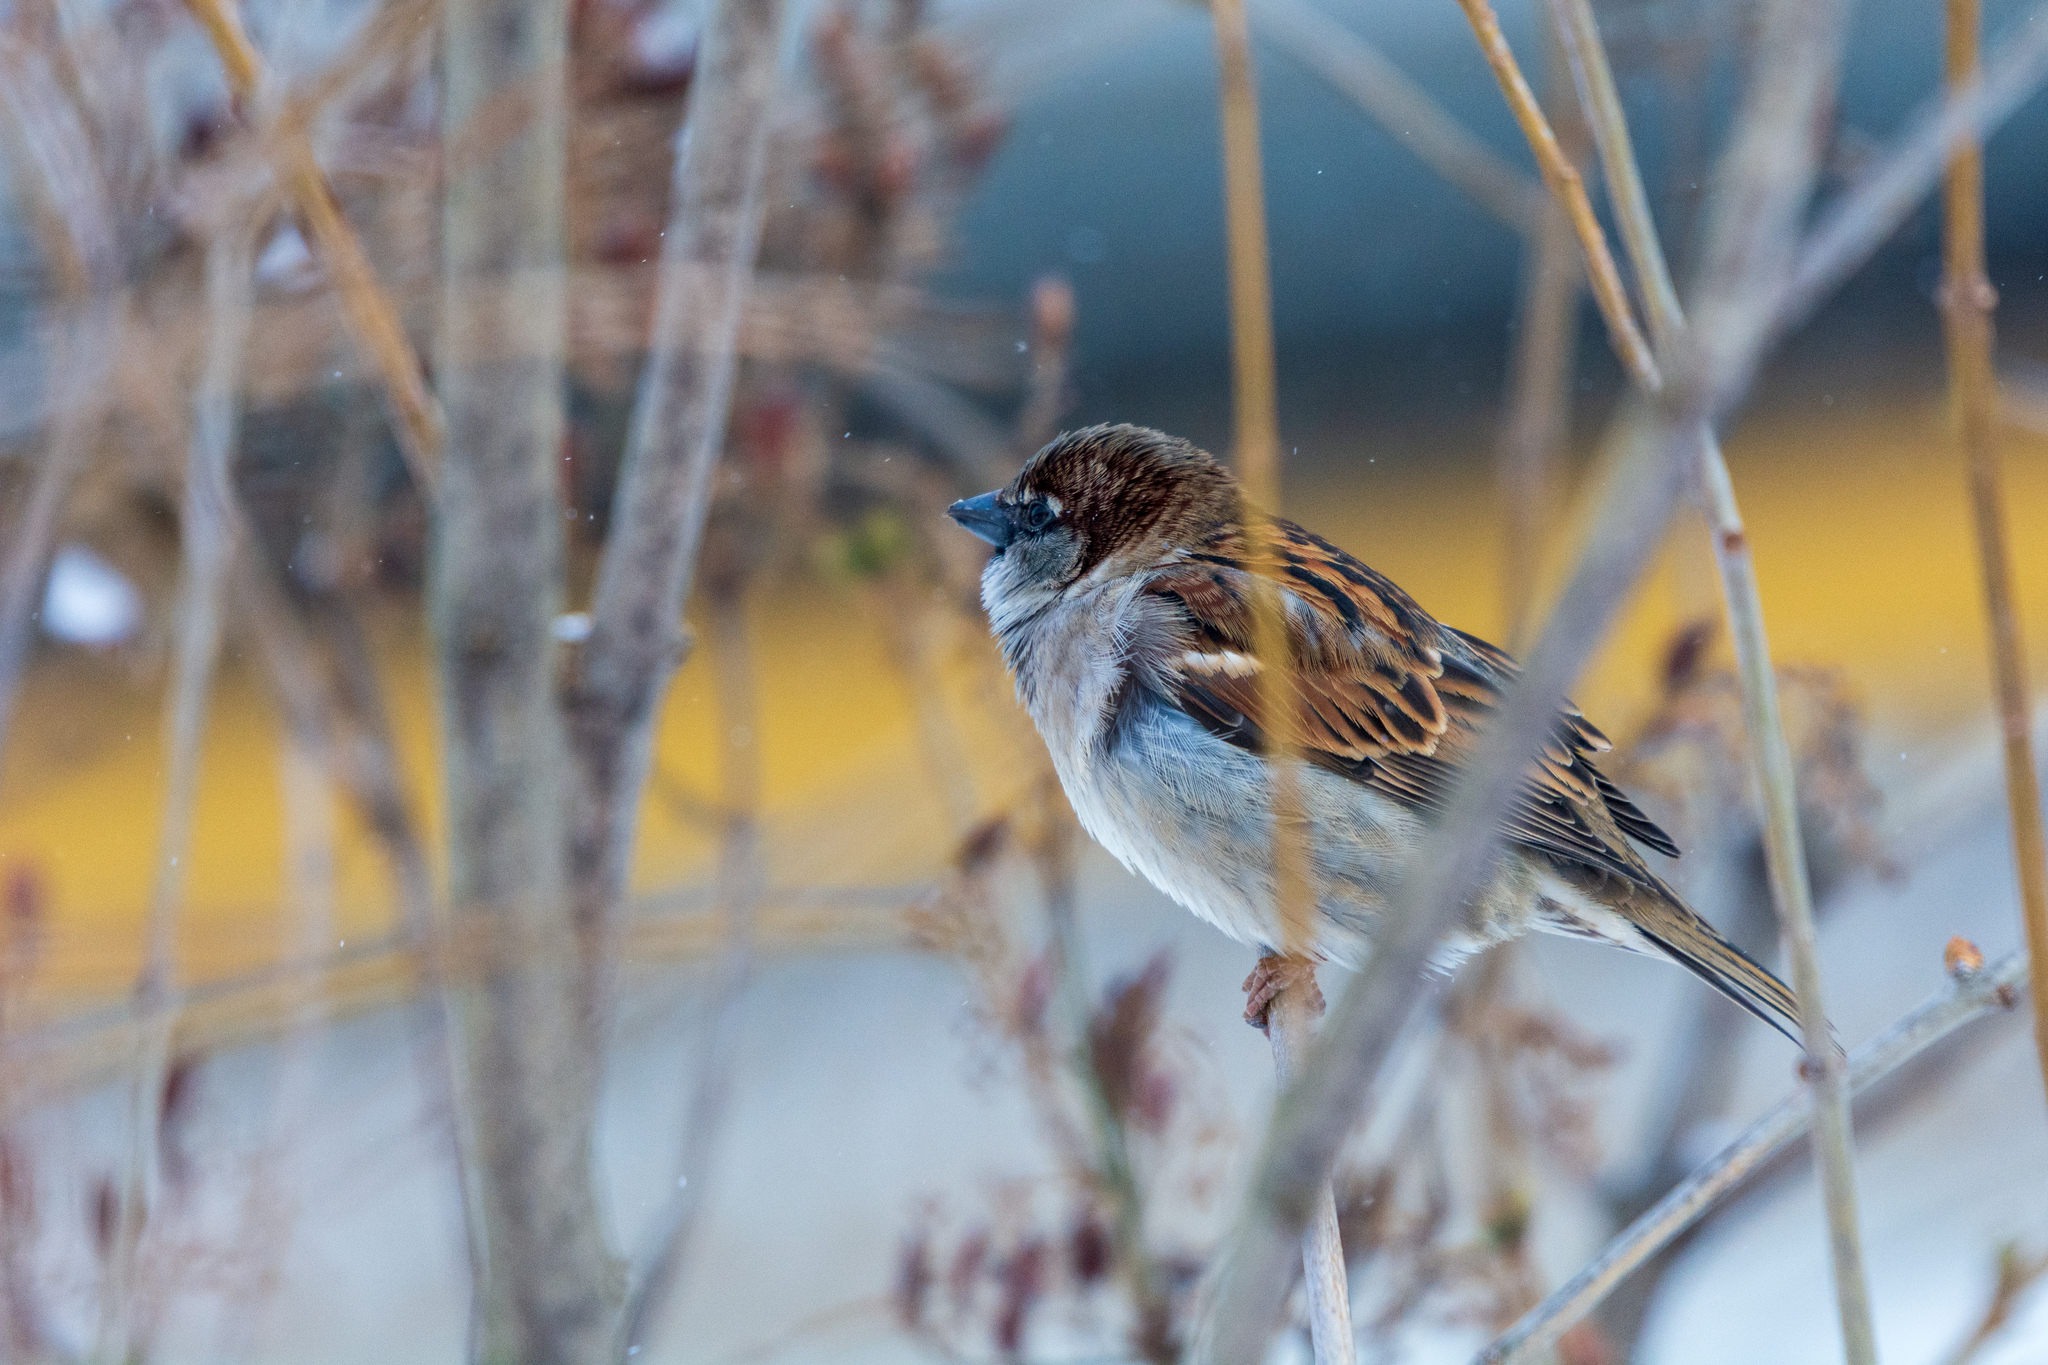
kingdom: Animalia
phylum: Chordata
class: Aves
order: Passeriformes
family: Passeridae
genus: Passer
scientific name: Passer domesticus
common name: House sparrow
